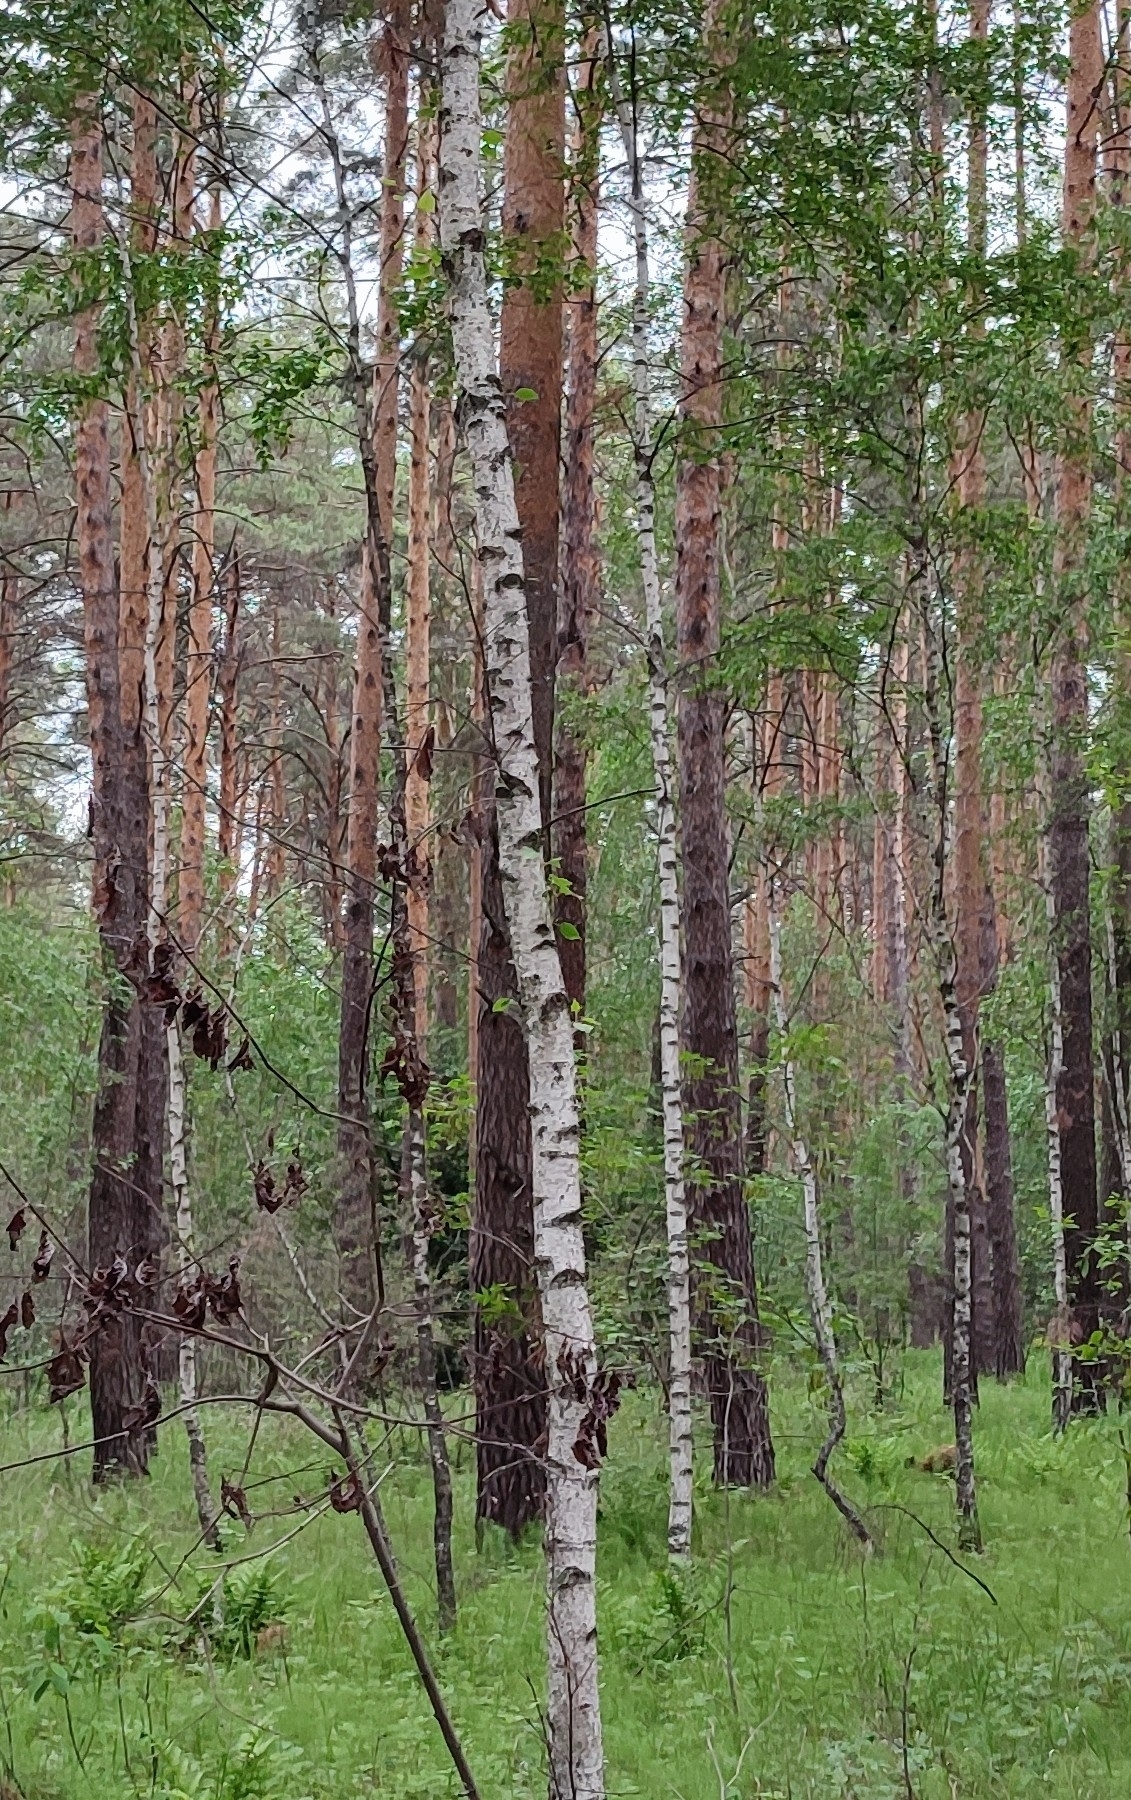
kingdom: Plantae
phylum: Tracheophyta
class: Magnoliopsida
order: Fagales
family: Betulaceae
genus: Betula
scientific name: Betula pendula
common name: Silver birch
